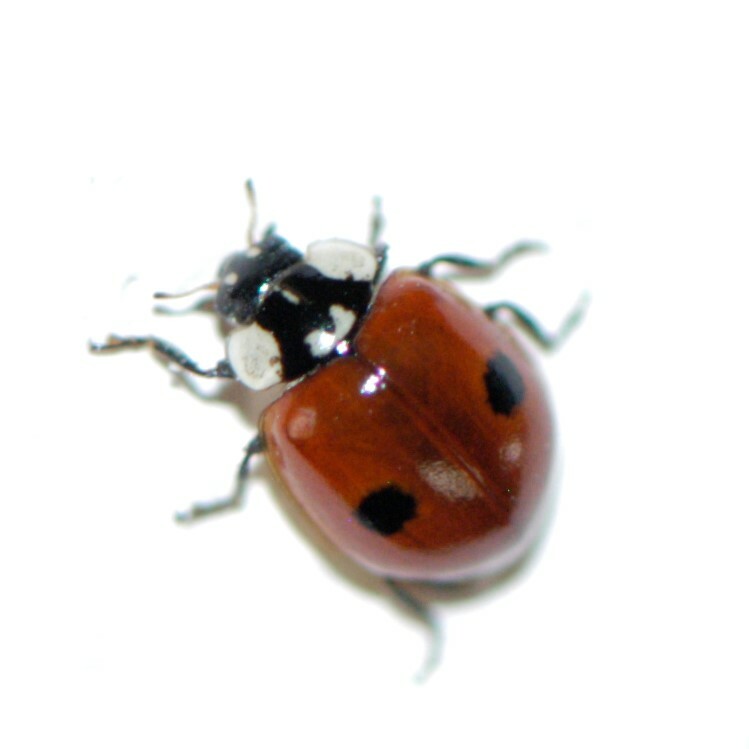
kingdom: Animalia
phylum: Arthropoda
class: Insecta
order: Coleoptera
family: Coccinellidae
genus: Adalia
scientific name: Adalia bipunctata
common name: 2-spot ladybird
